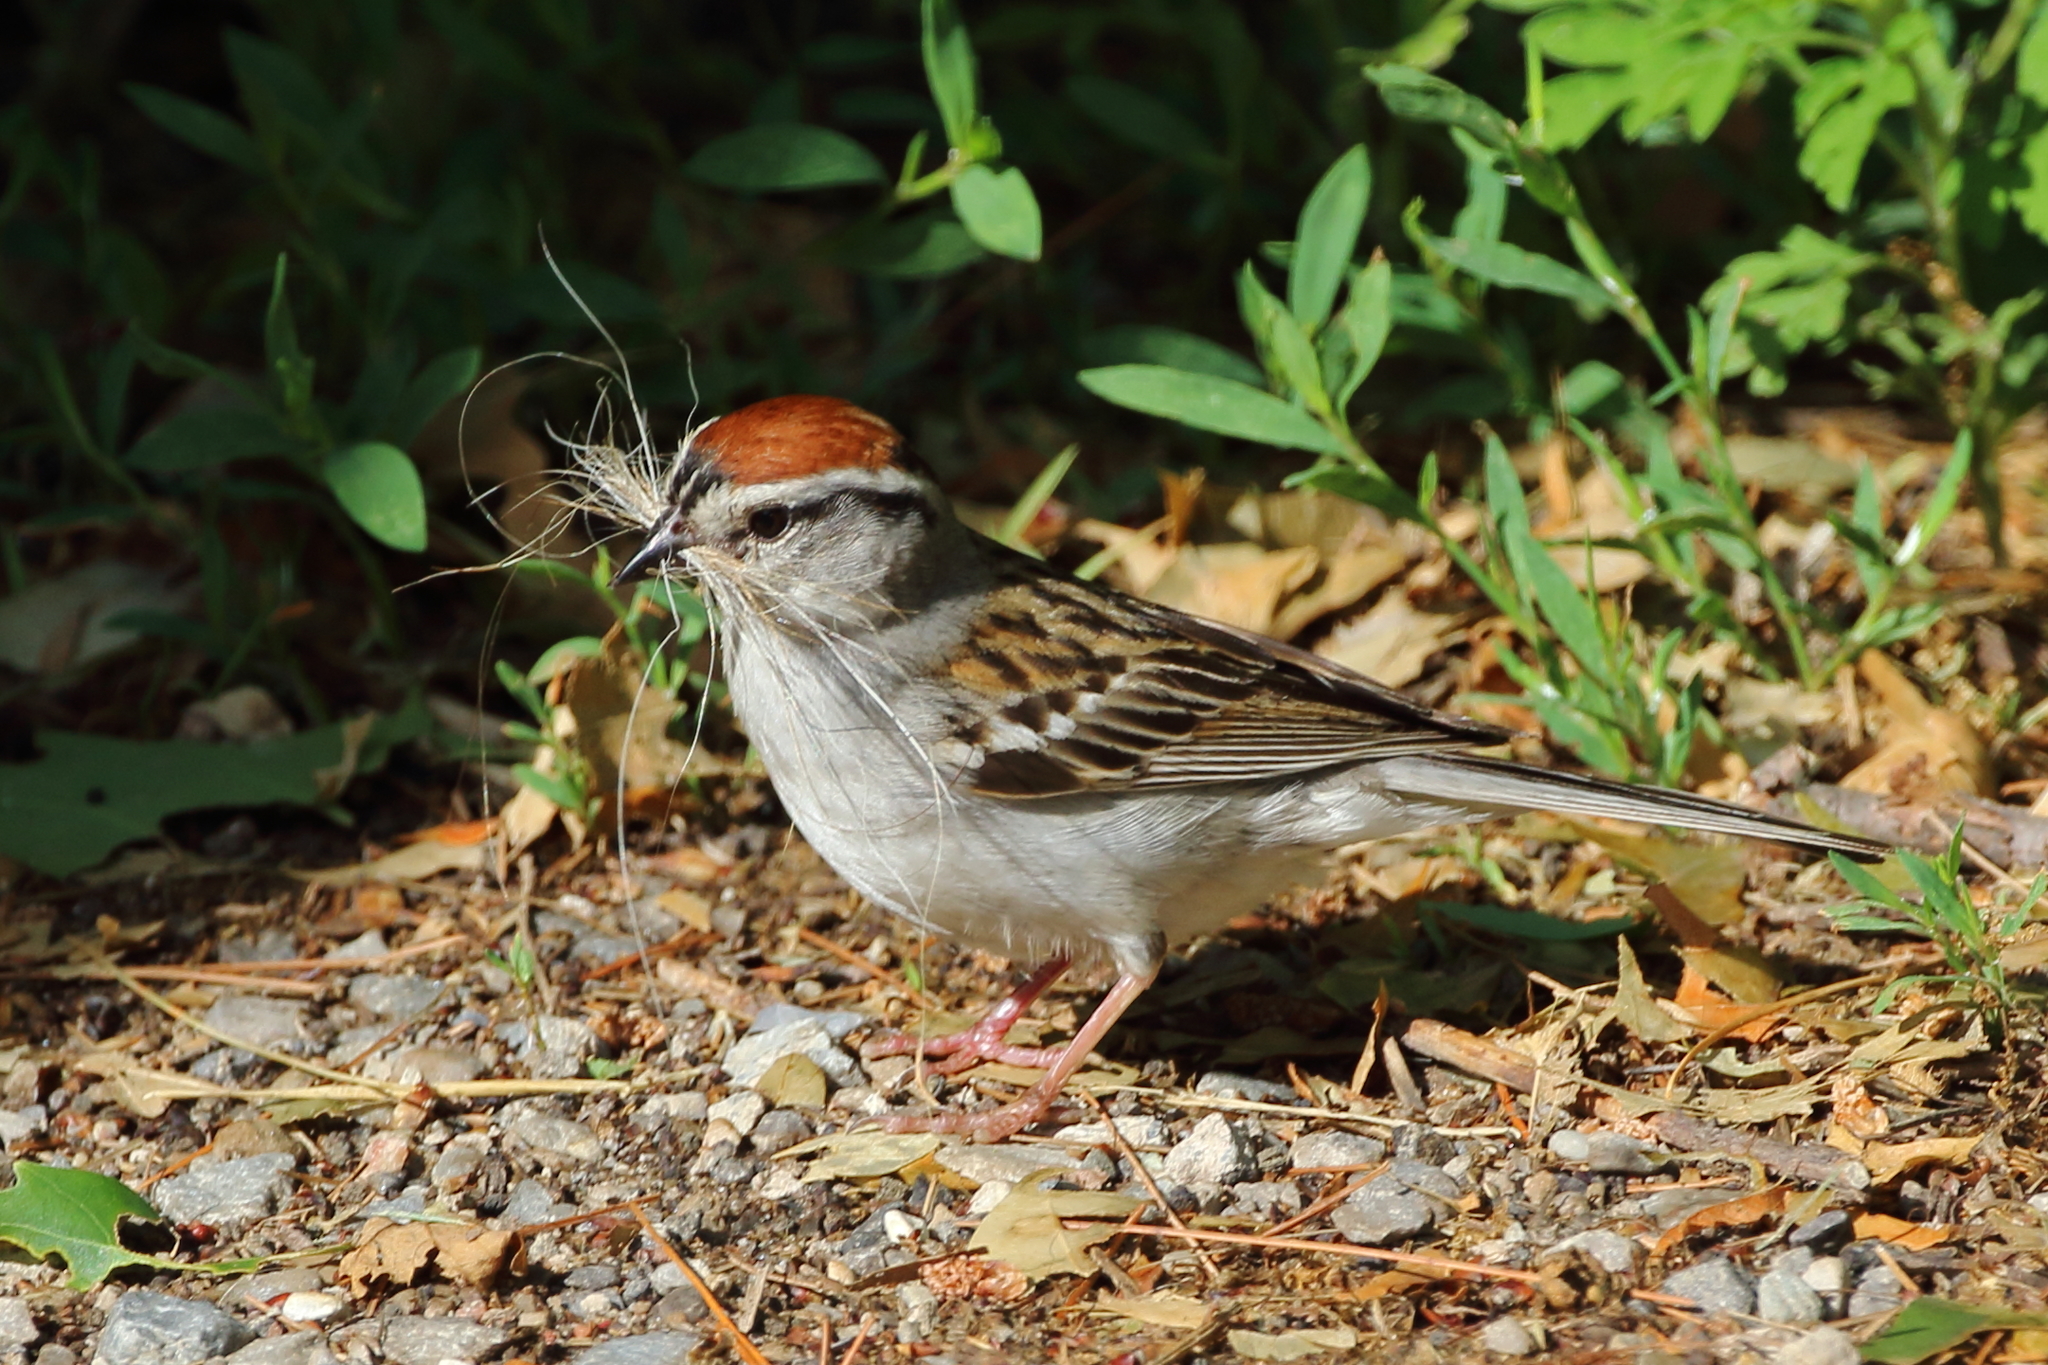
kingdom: Animalia
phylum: Chordata
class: Aves
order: Passeriformes
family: Passerellidae
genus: Spizella
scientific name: Spizella passerina
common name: Chipping sparrow
